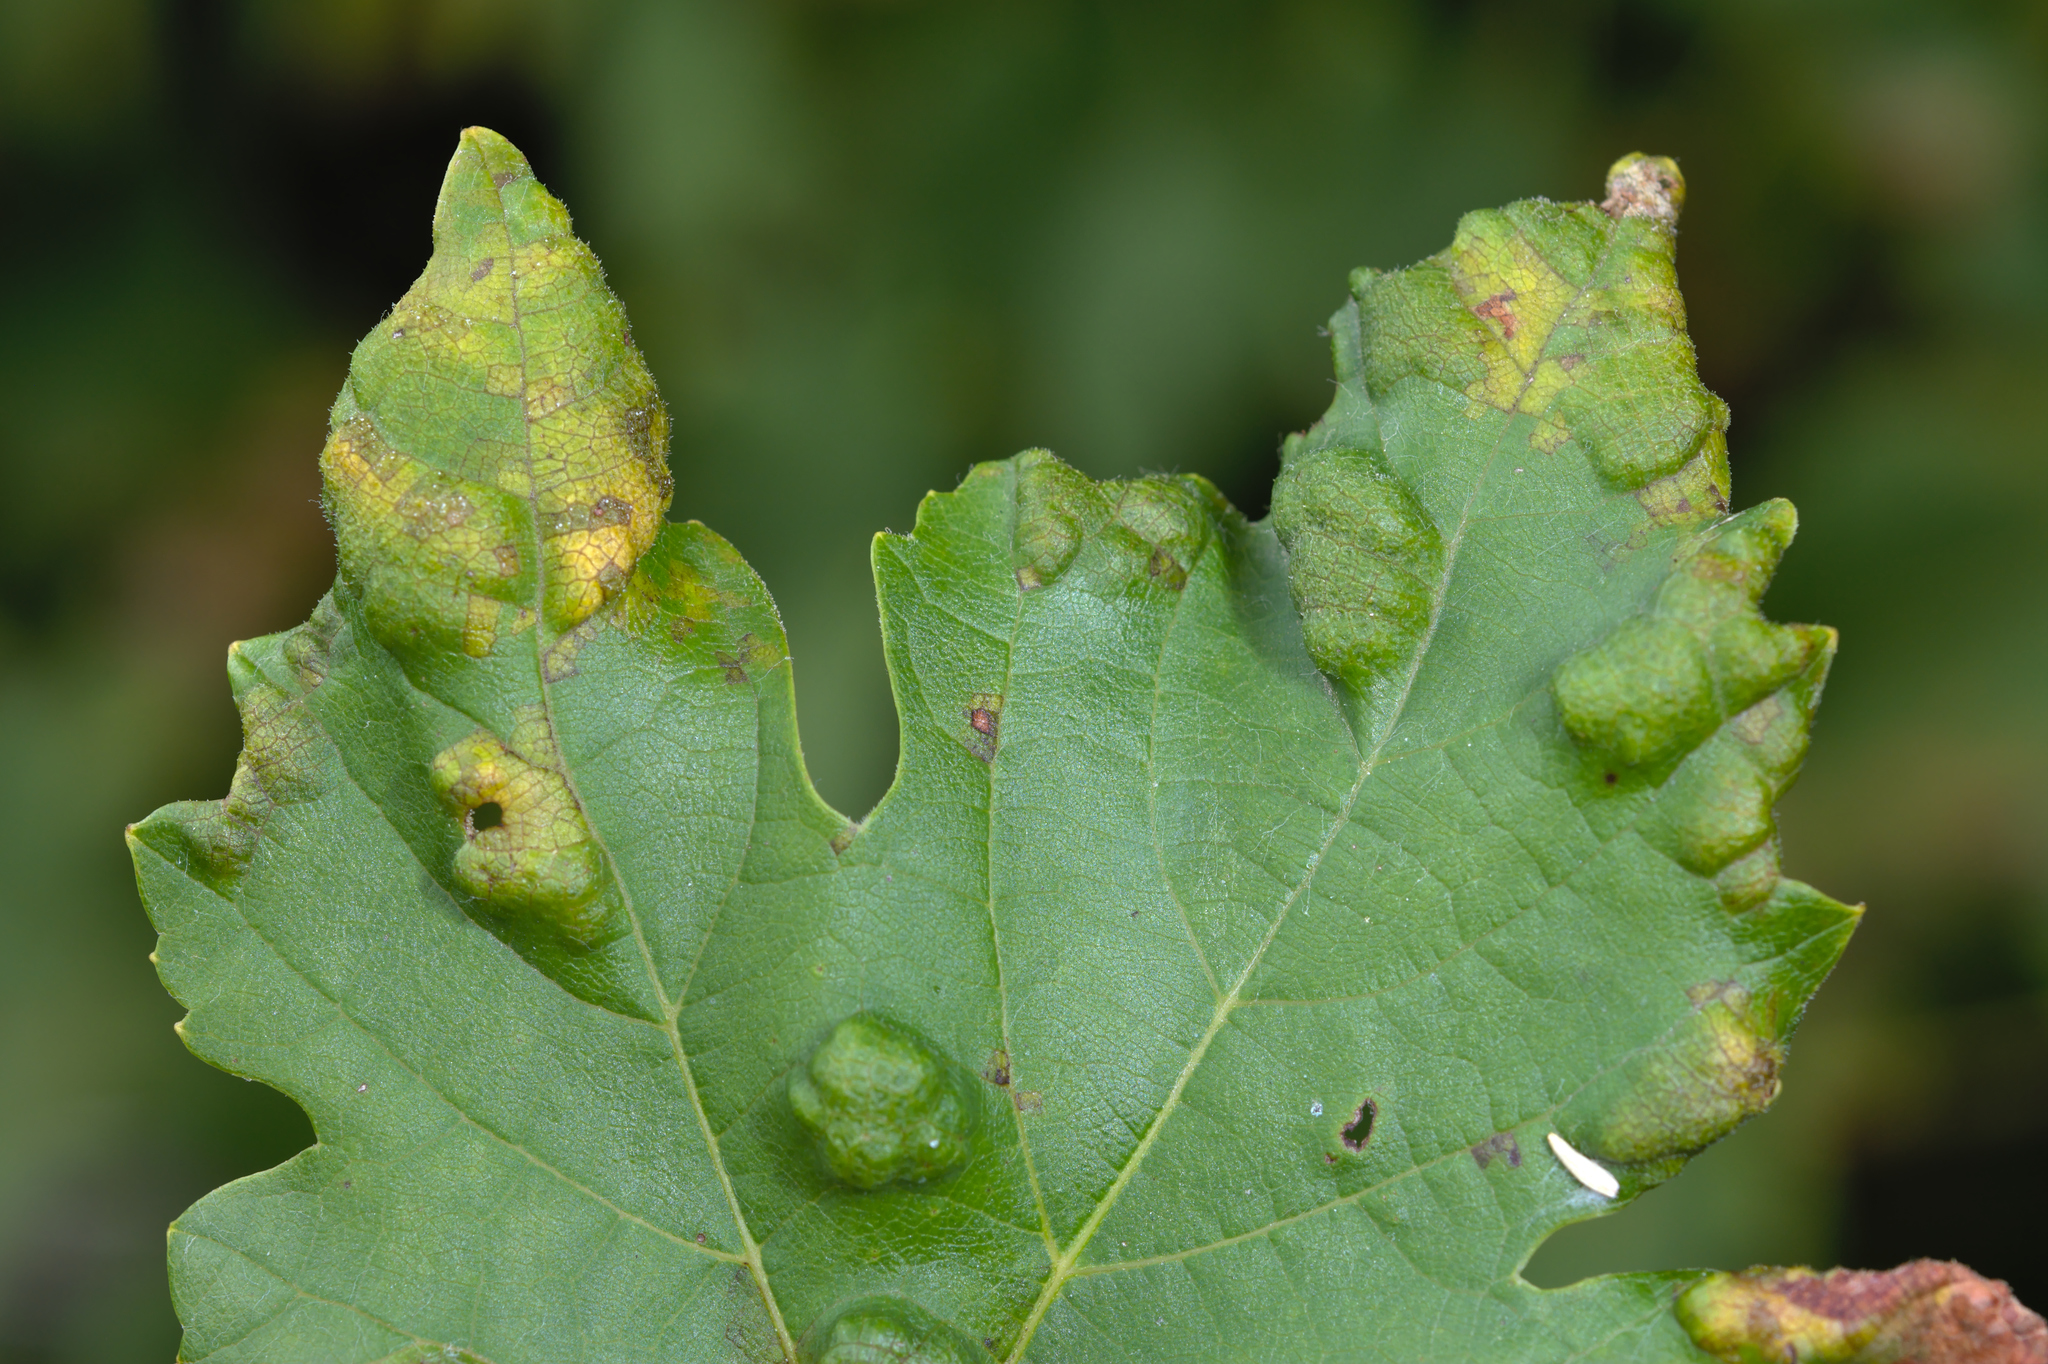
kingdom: Animalia
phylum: Arthropoda
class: Arachnida
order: Trombidiformes
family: Eriophyidae
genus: Colomerus
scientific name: Colomerus vitis
